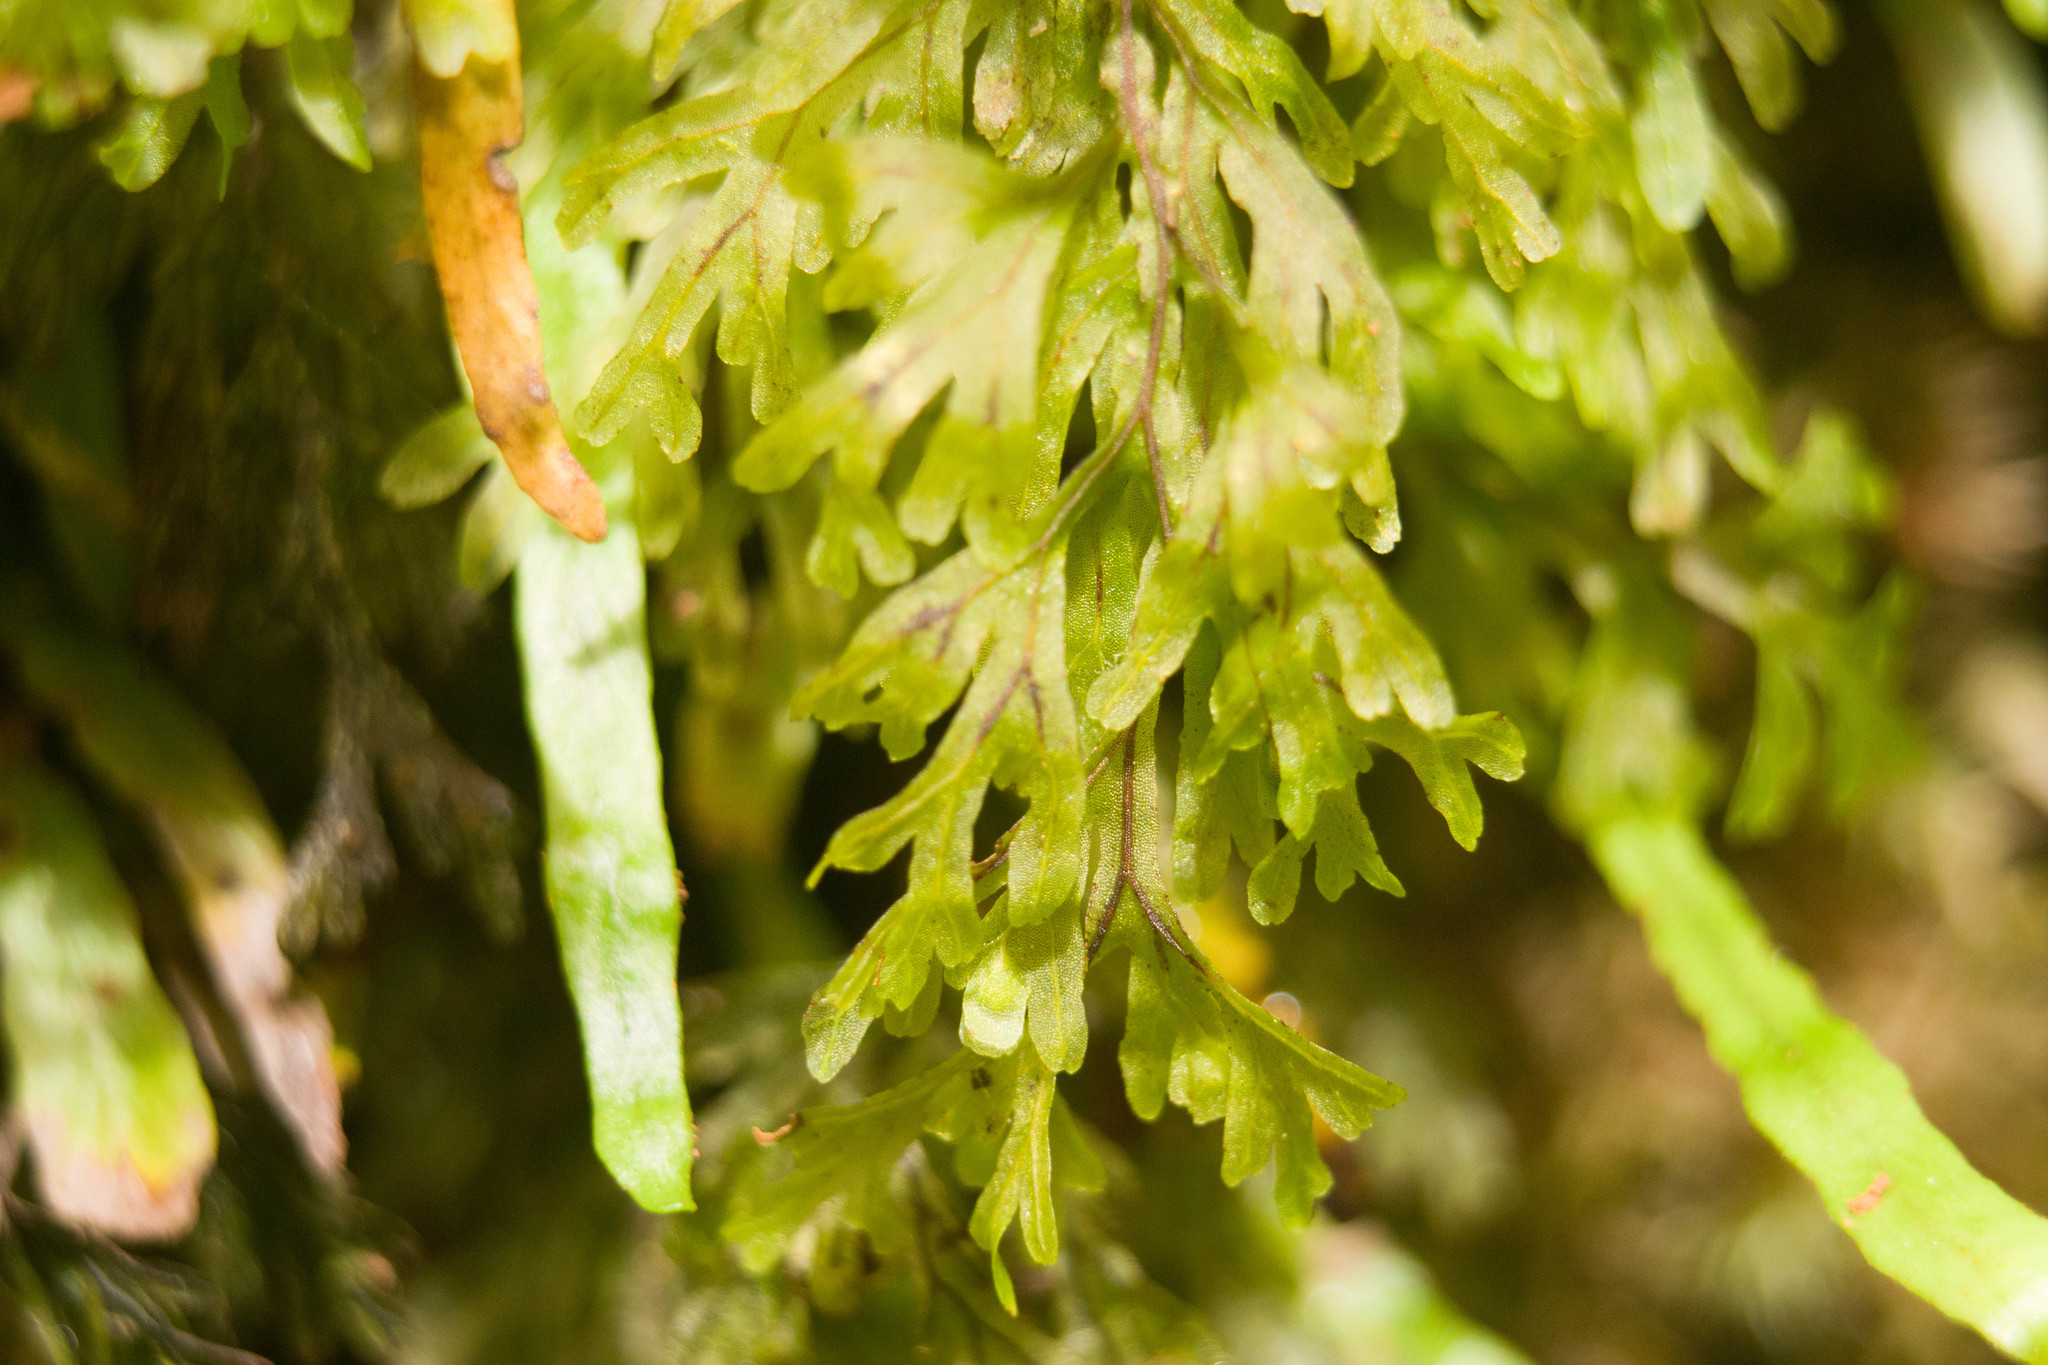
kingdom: Plantae
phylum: Tracheophyta
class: Polypodiopsida
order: Hymenophyllales
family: Hymenophyllaceae
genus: Hymenophyllum
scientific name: Hymenophyllum recurvum
